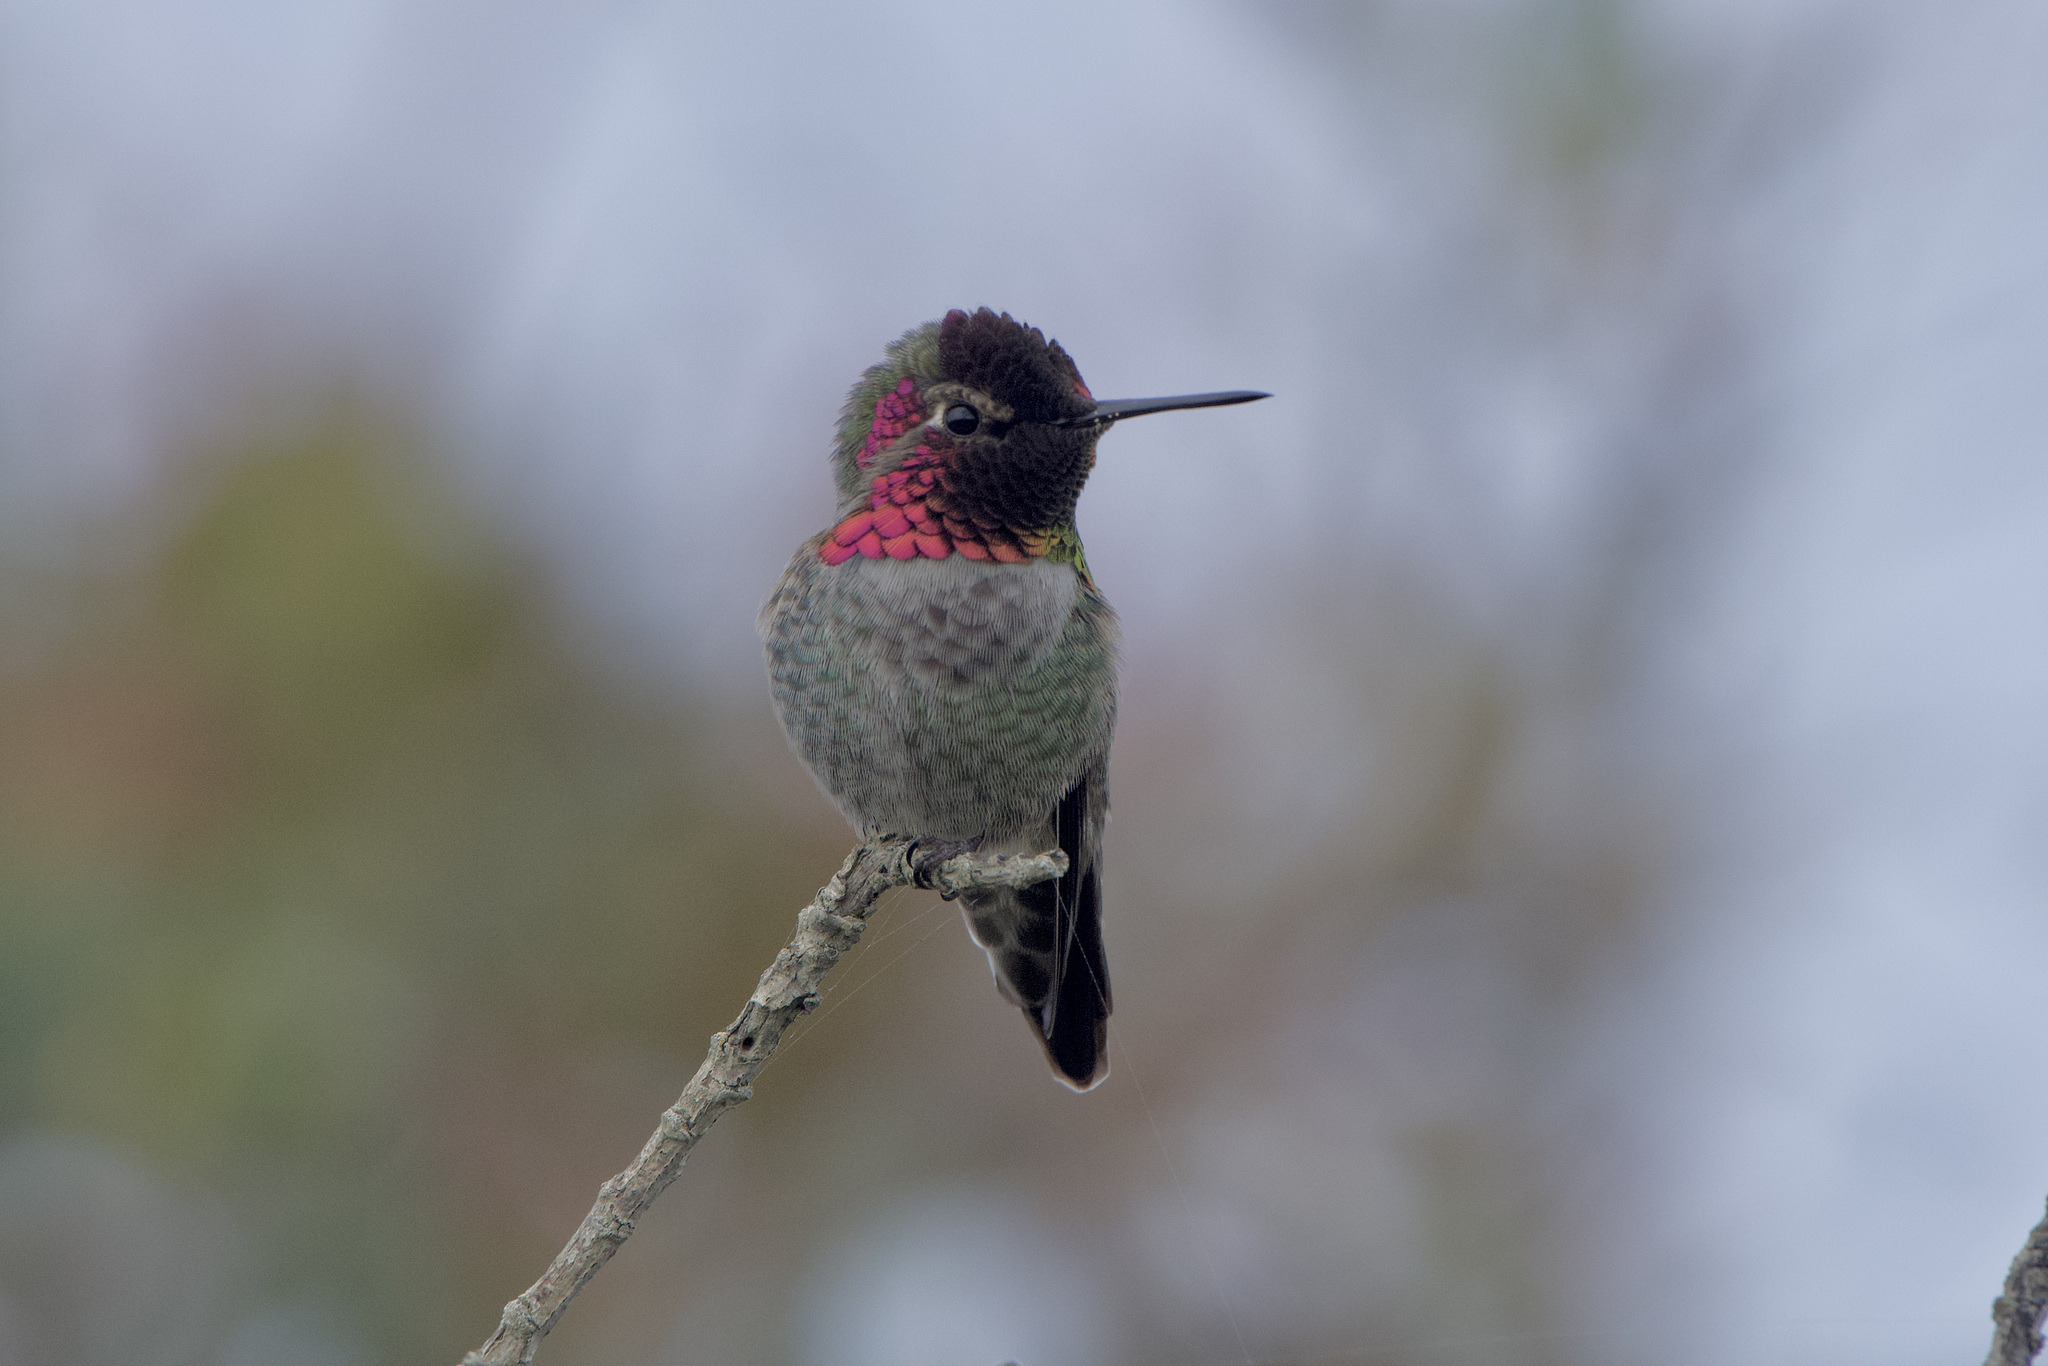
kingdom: Animalia
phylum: Chordata
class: Aves
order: Apodiformes
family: Trochilidae
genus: Calypte
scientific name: Calypte anna
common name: Anna's hummingbird
